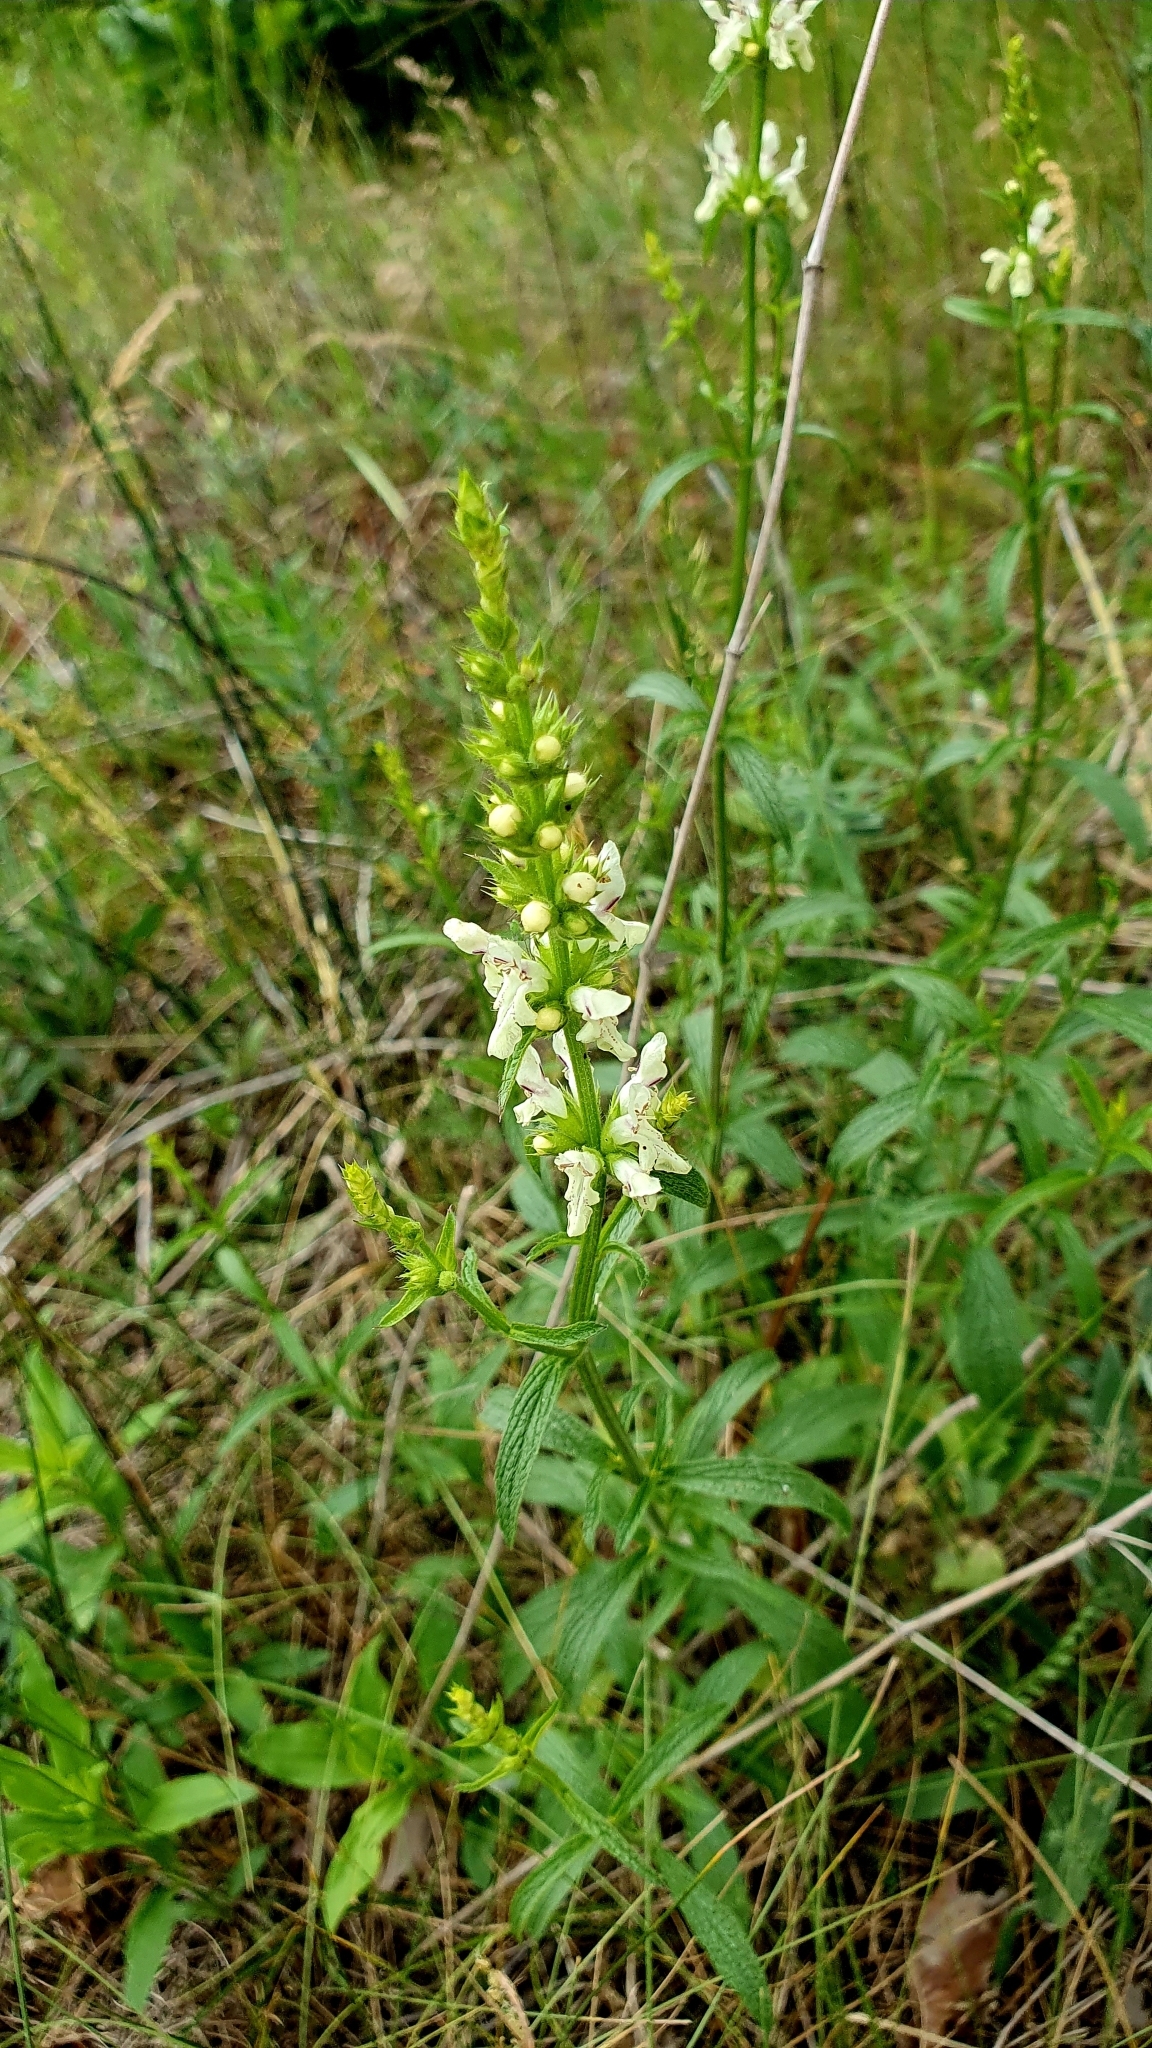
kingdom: Plantae
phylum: Tracheophyta
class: Magnoliopsida
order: Lamiales
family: Lamiaceae
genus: Stachys
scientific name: Stachys recta
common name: Perennial yellow-woundwort
